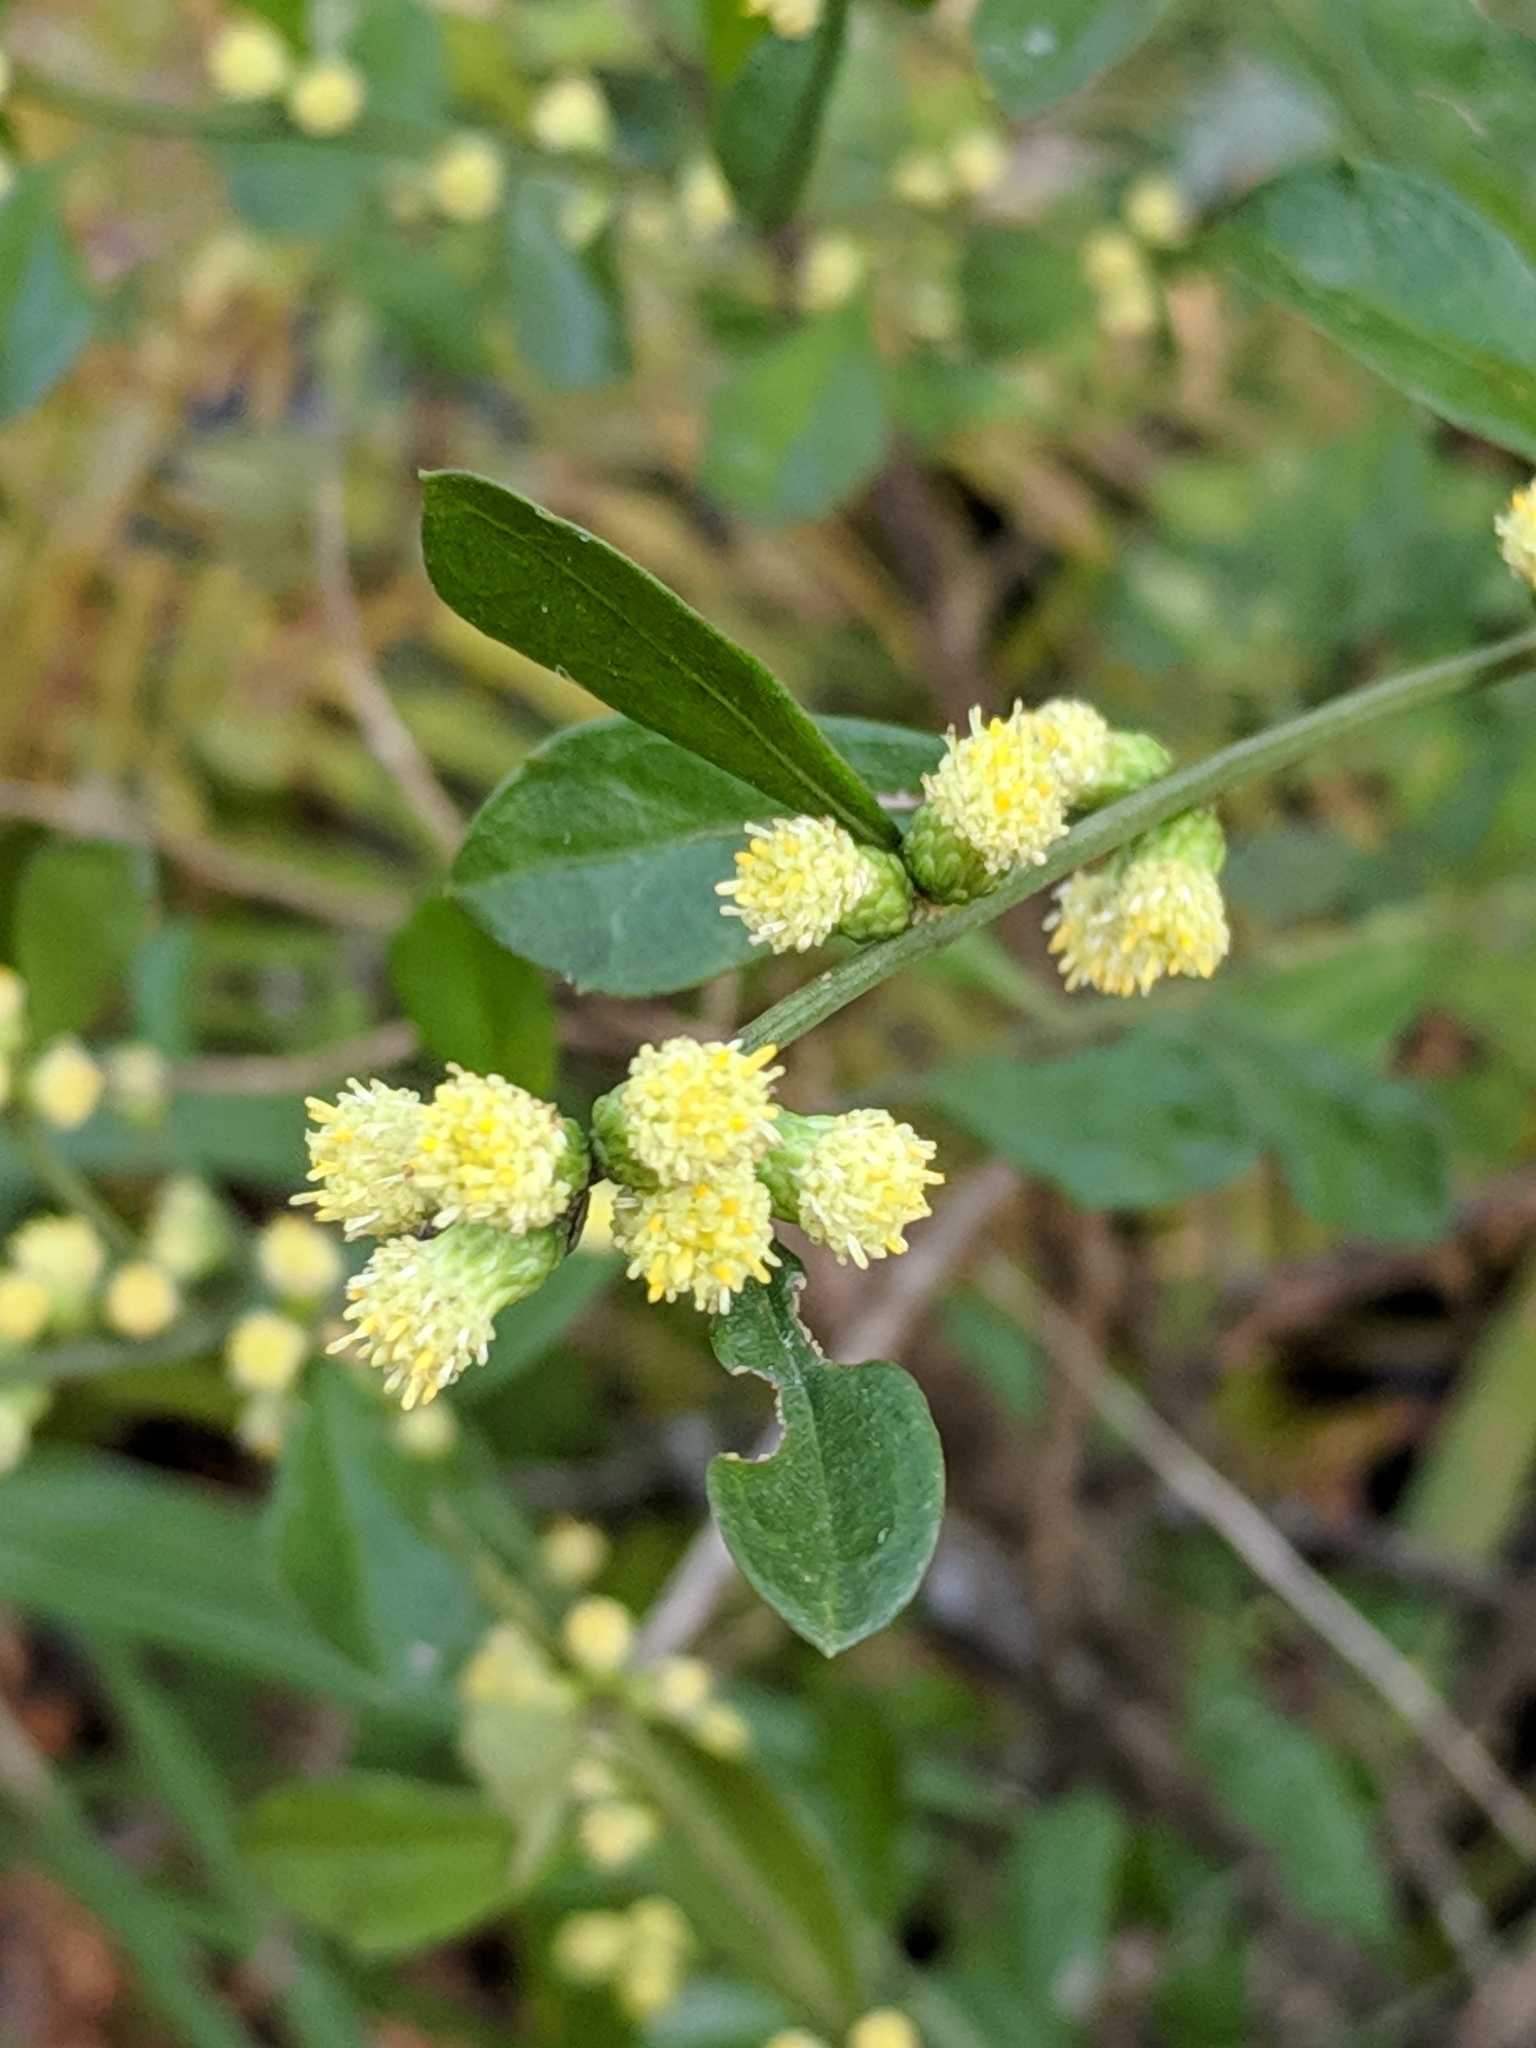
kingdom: Plantae
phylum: Tracheophyta
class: Magnoliopsida
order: Asterales
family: Asteraceae
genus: Baccharis
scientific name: Baccharis glomeruliflora
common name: Silverling groundsel bush
